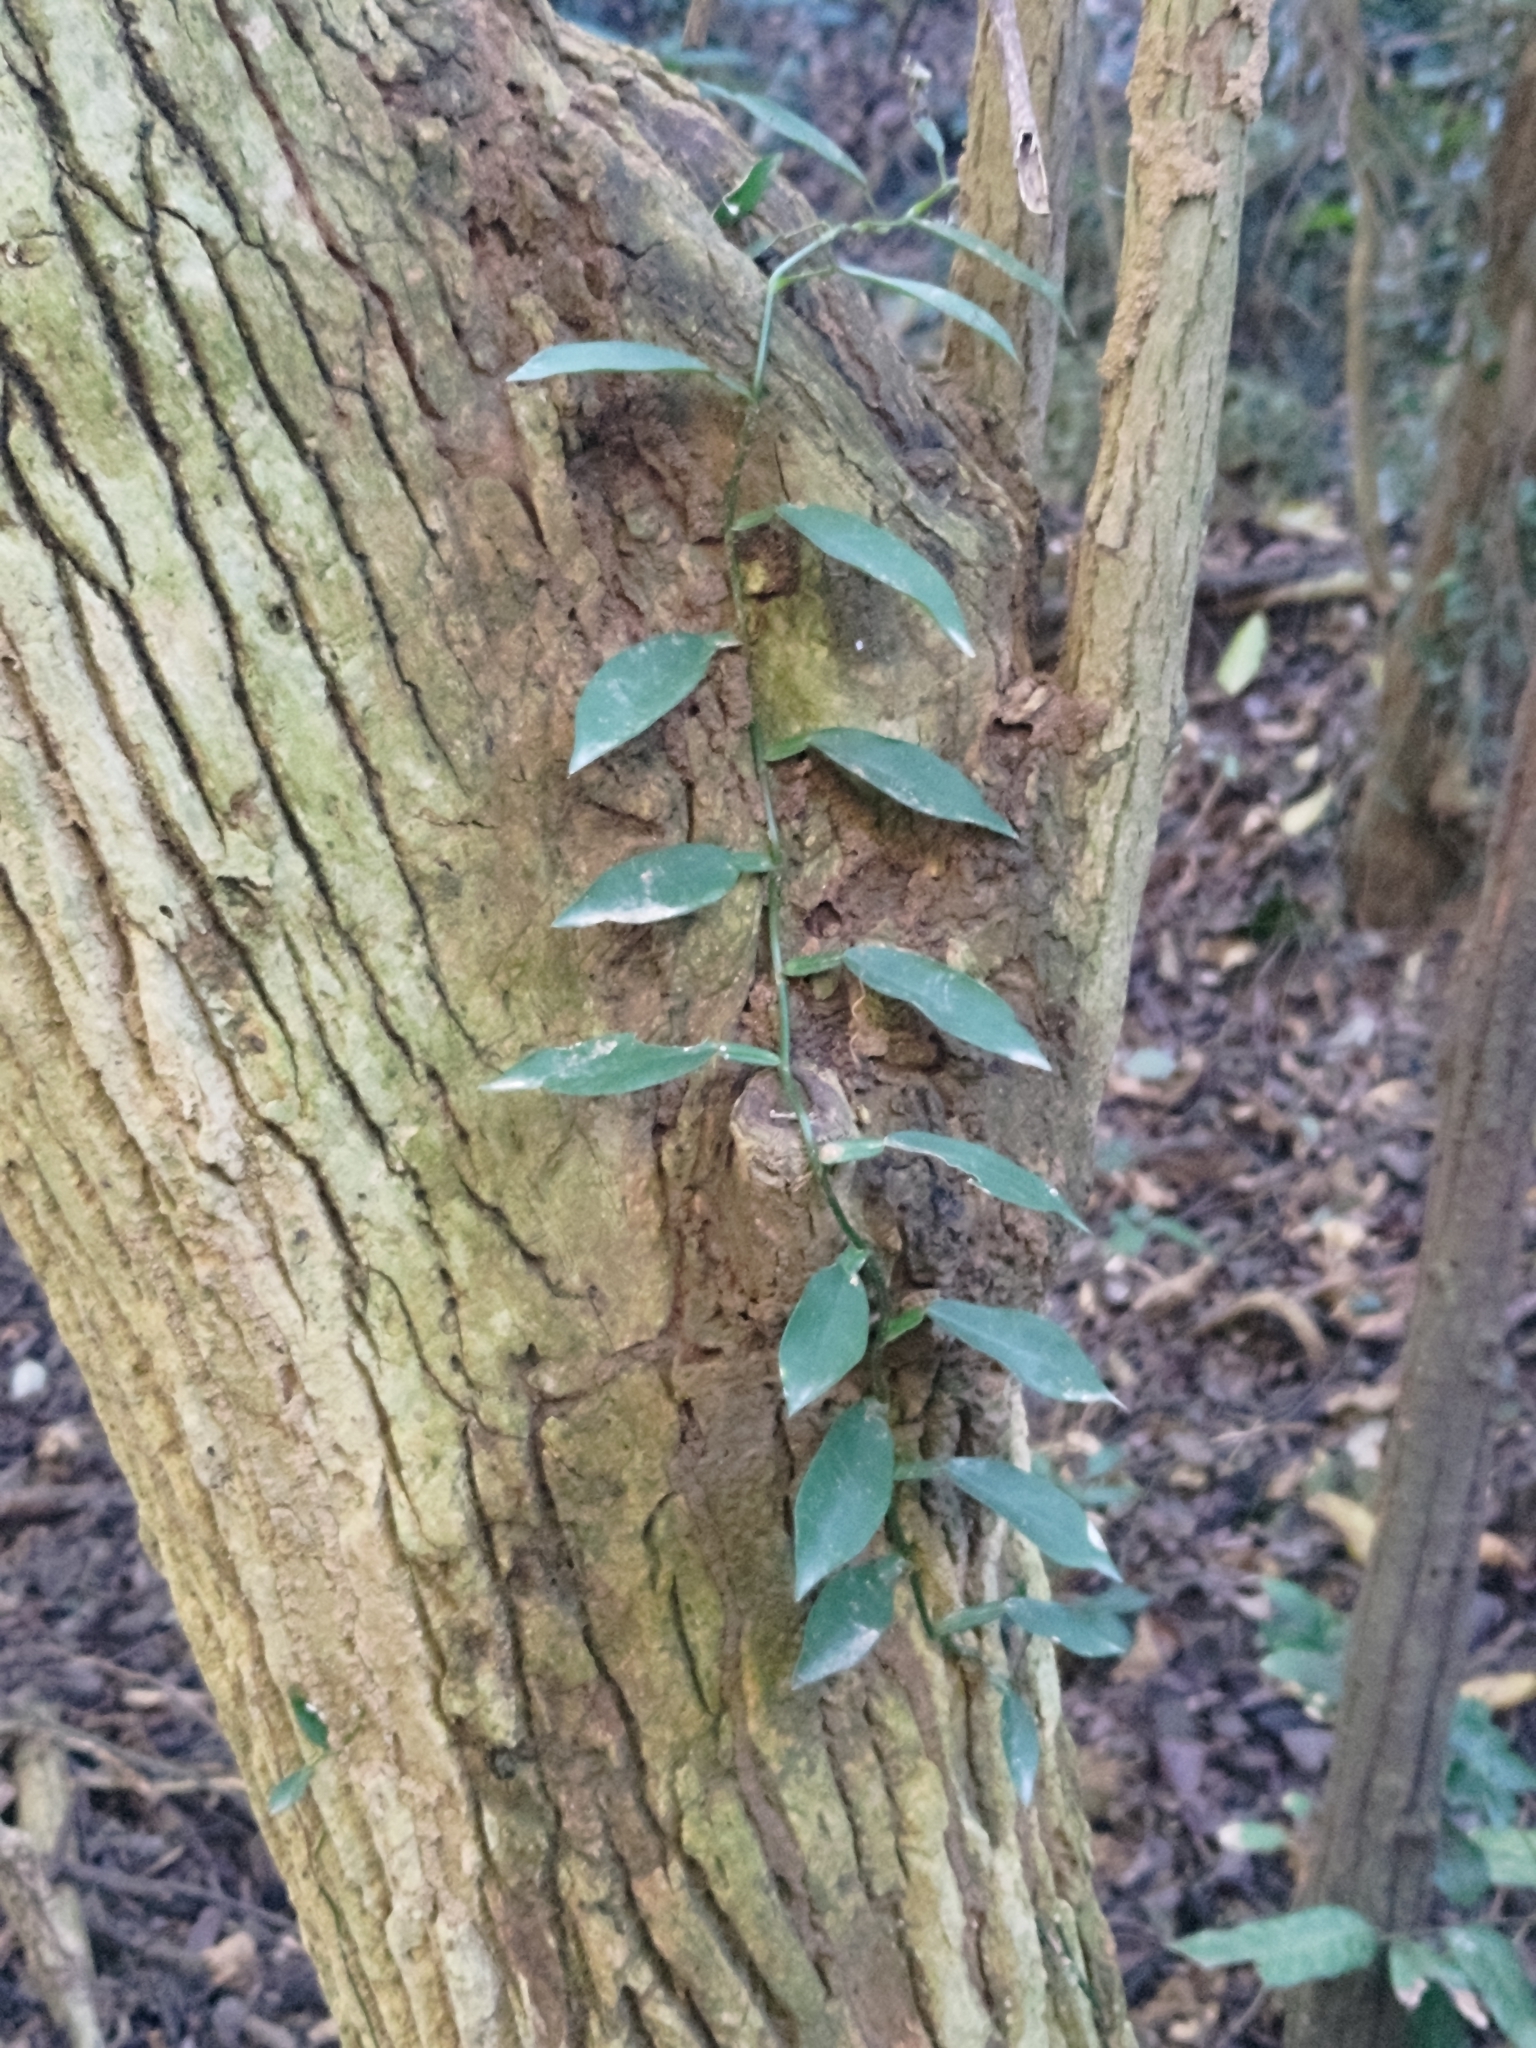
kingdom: Plantae
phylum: Tracheophyta
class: Liliopsida
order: Alismatales
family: Araceae
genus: Pothos
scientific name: Pothos chinensis
